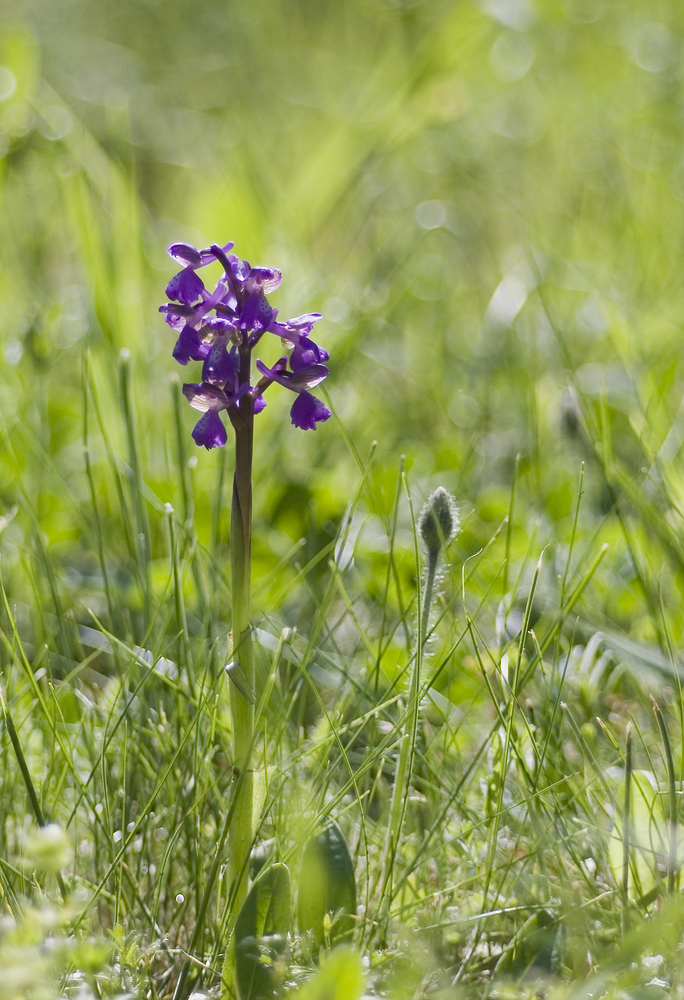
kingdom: Plantae
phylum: Tracheophyta
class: Liliopsida
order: Asparagales
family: Orchidaceae
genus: Anacamptis
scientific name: Anacamptis morio
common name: Green-winged orchid
